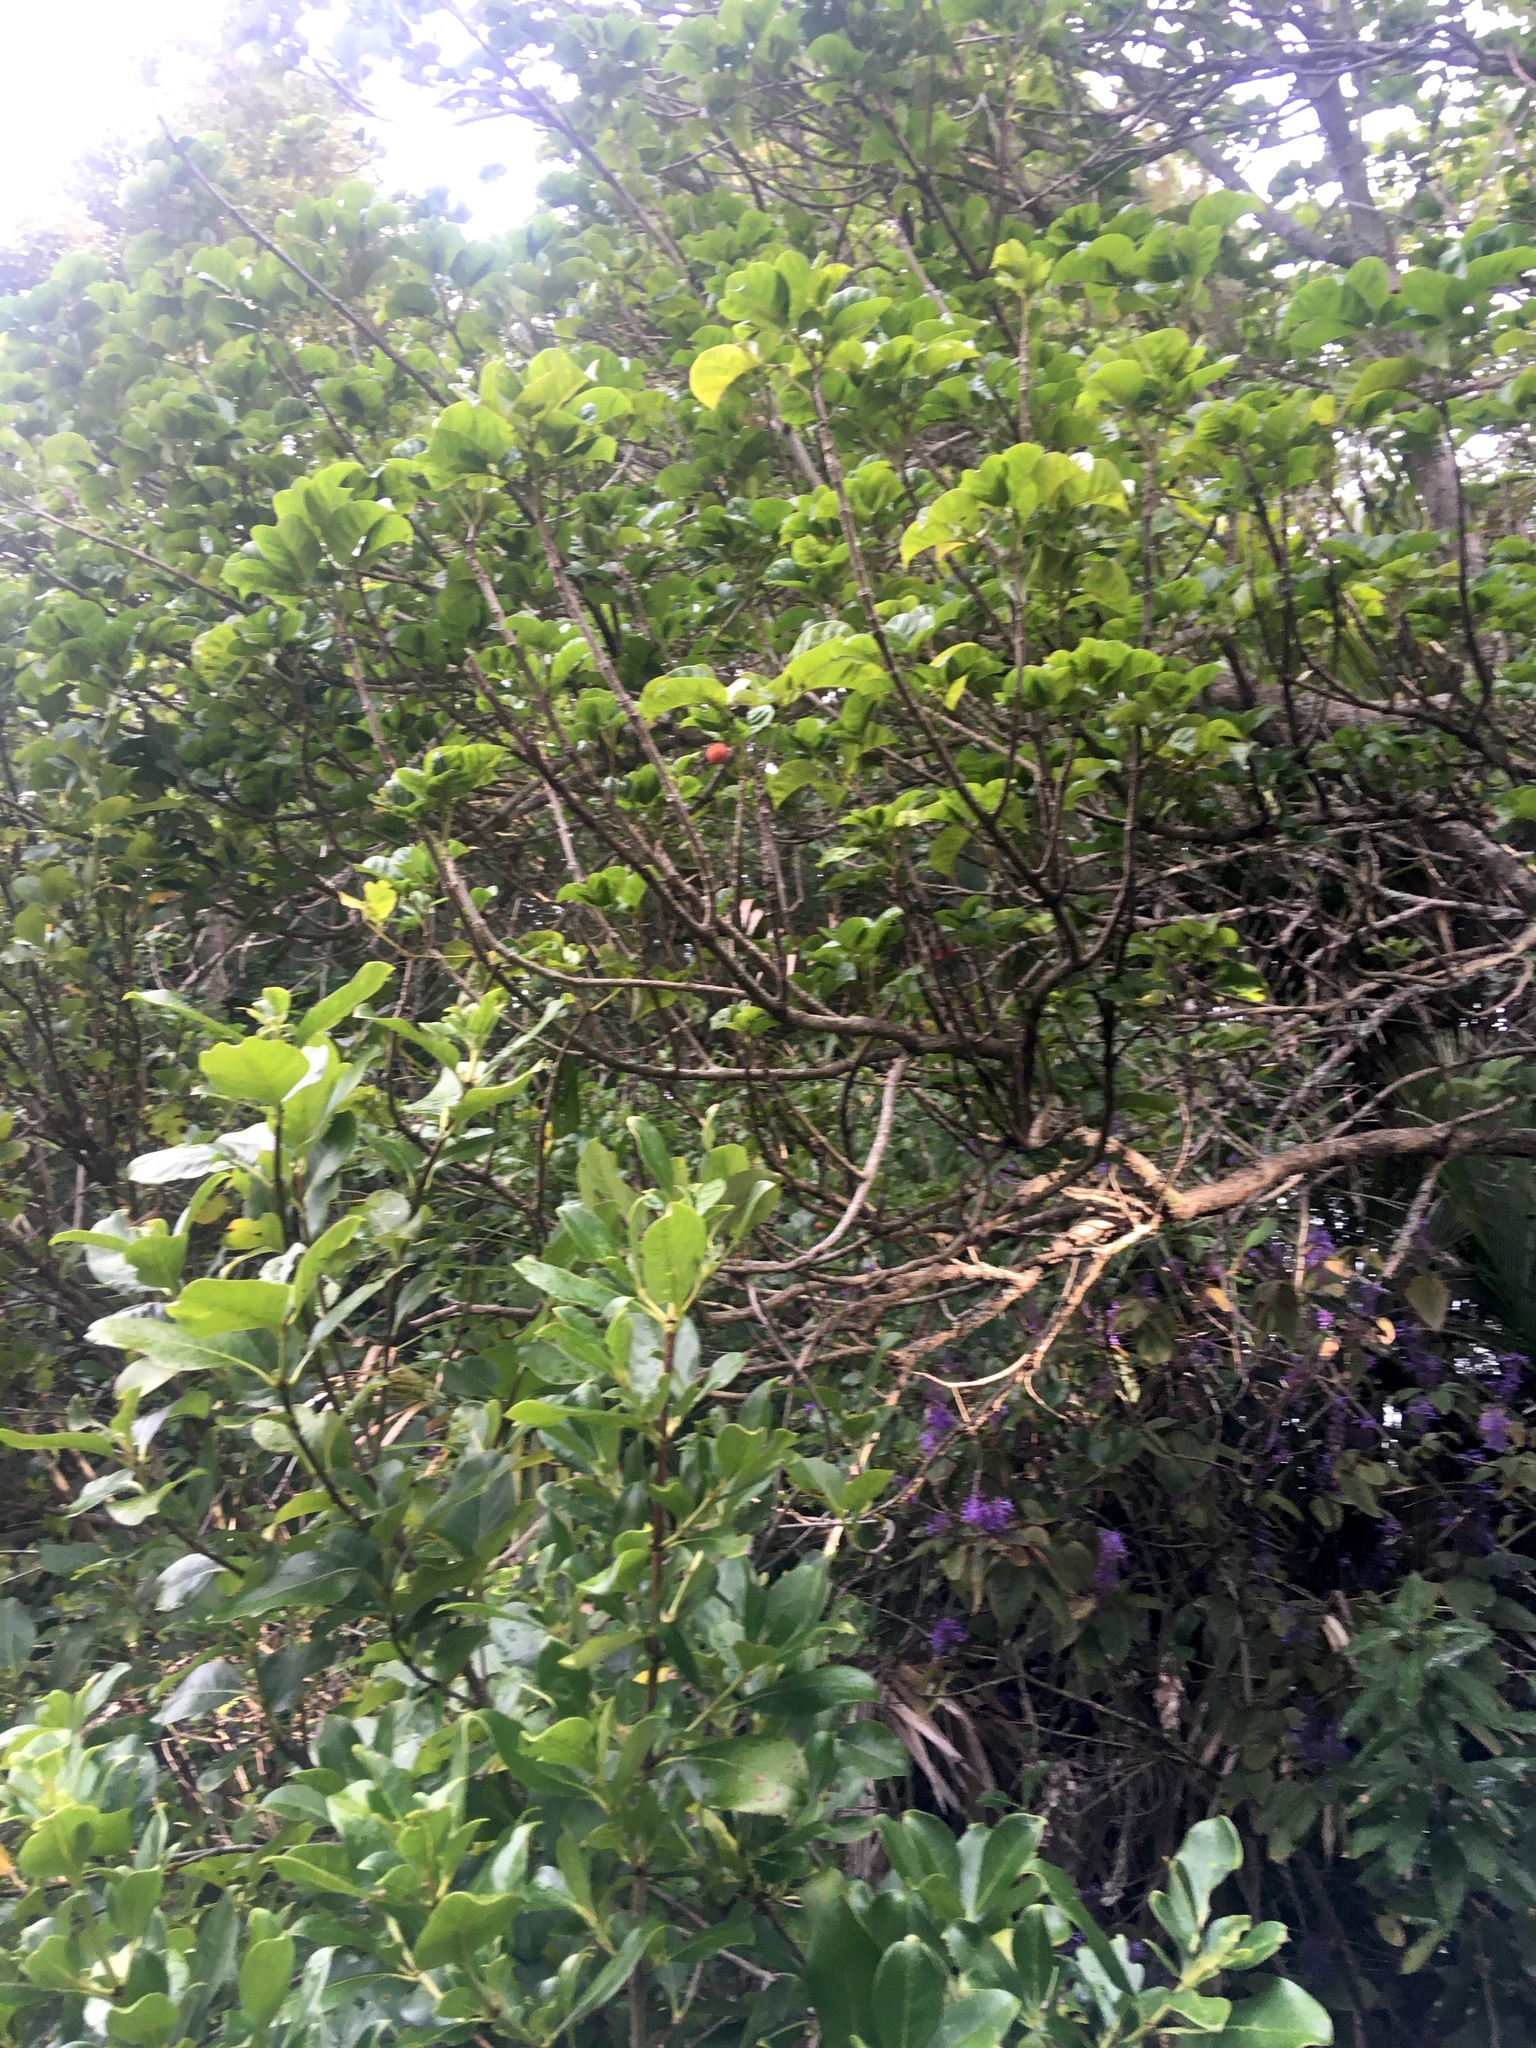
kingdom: Plantae
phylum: Tracheophyta
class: Magnoliopsida
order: Lamiales
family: Lamiaceae
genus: Vitex
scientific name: Vitex lucens
